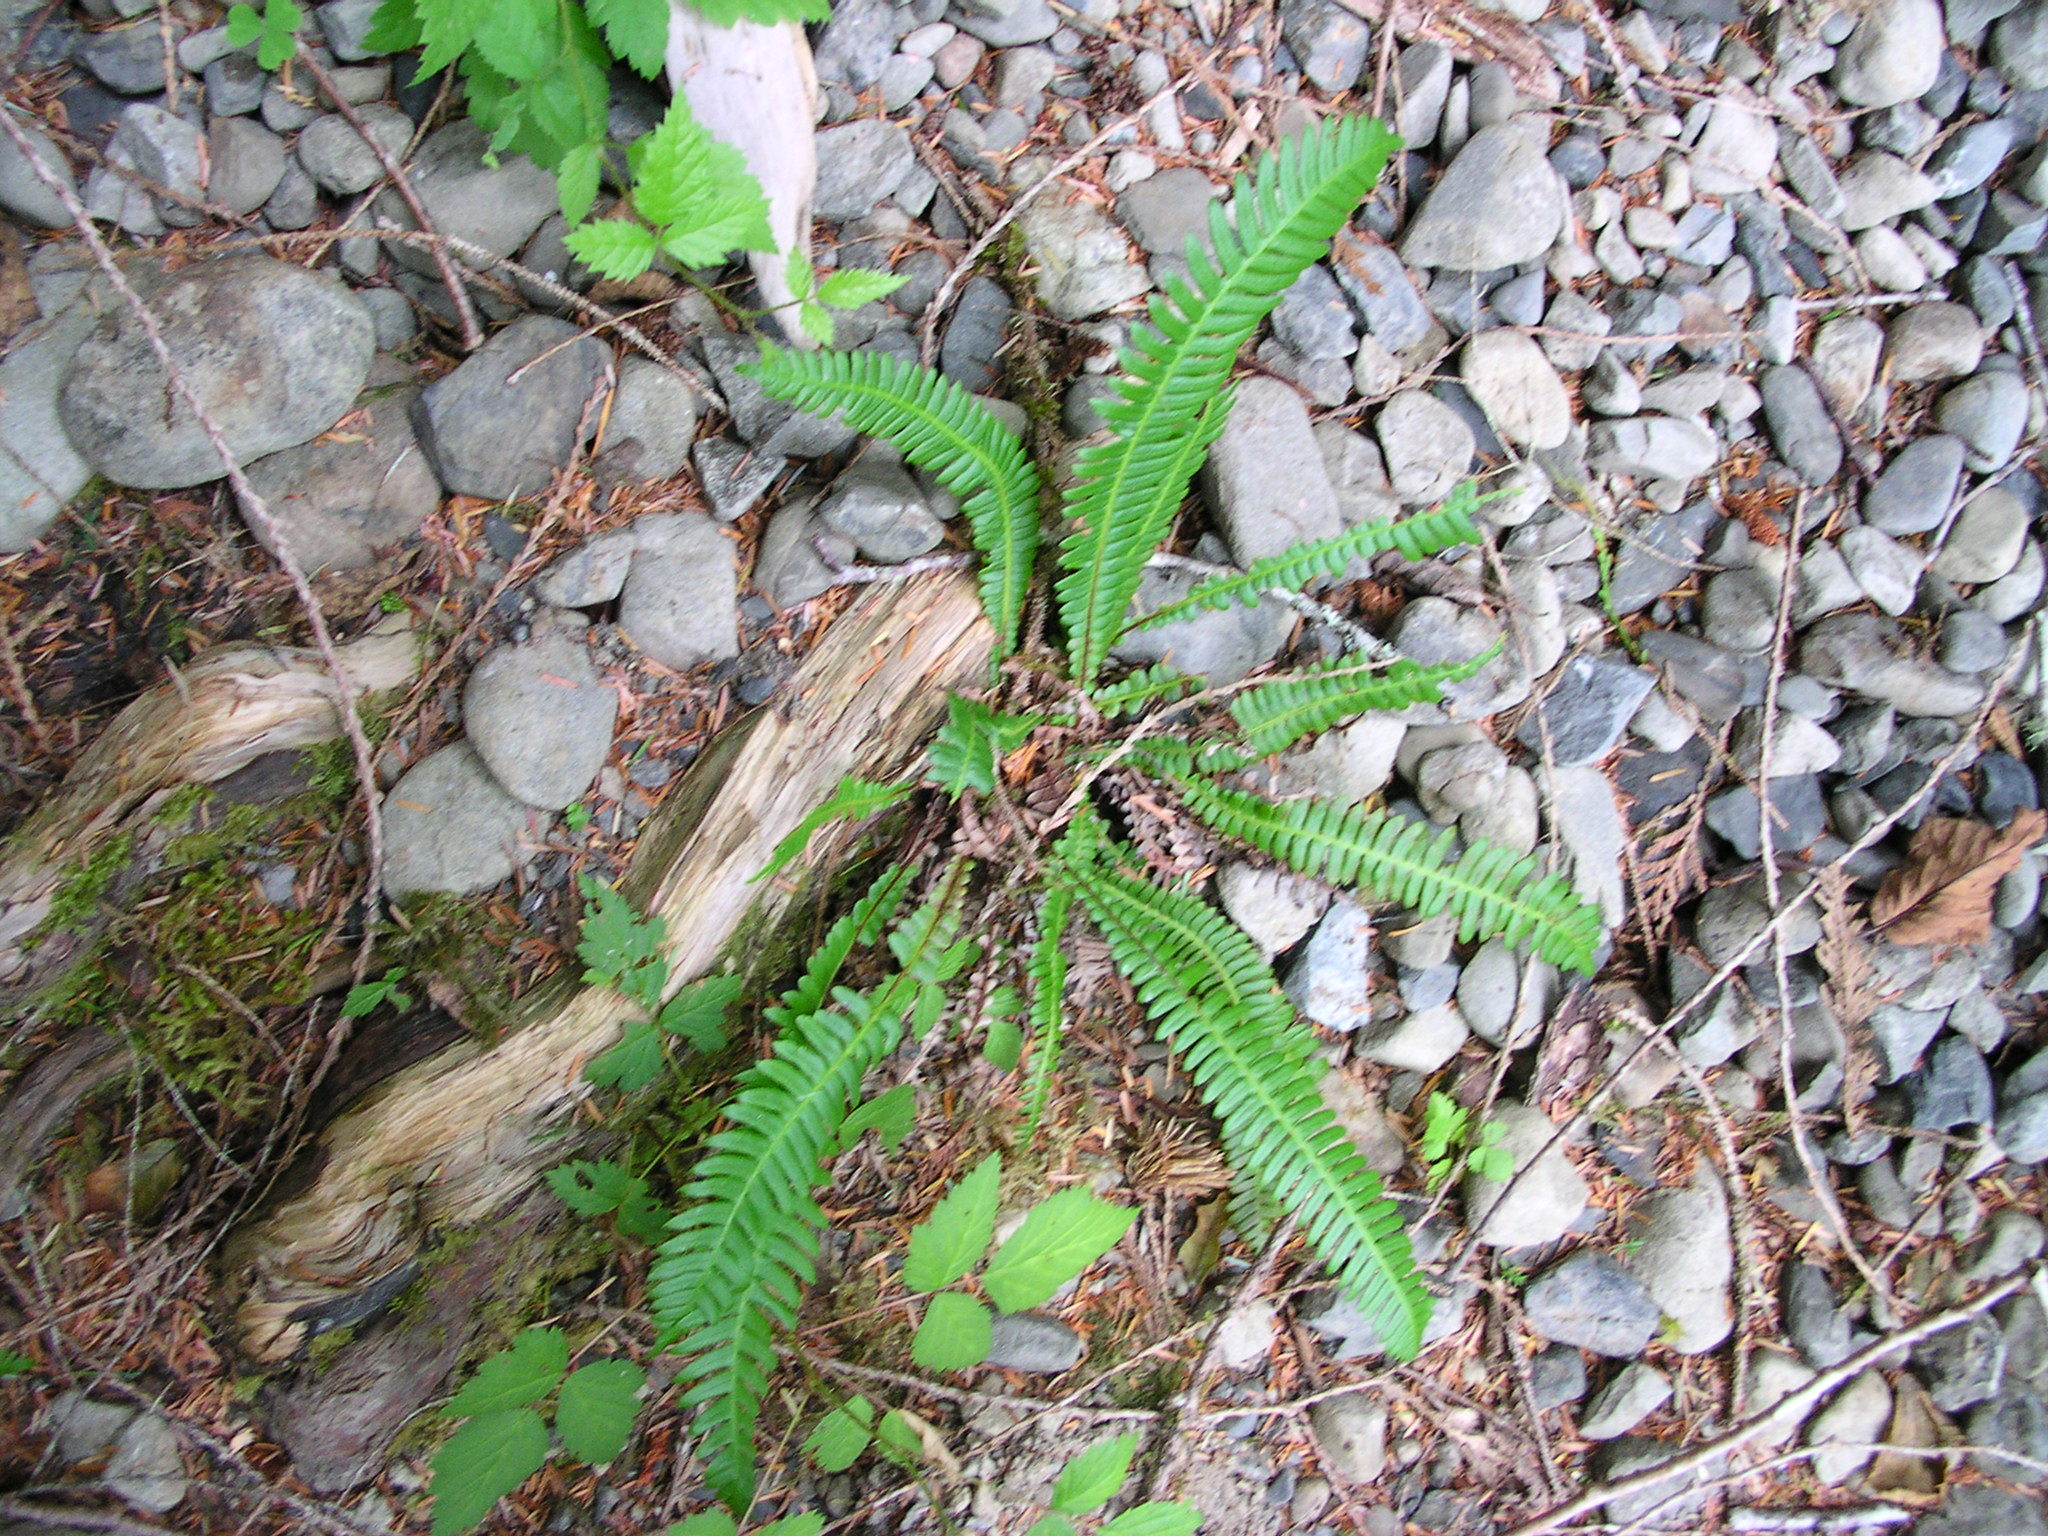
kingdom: Plantae
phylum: Tracheophyta
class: Polypodiopsida
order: Polypodiales
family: Blechnaceae
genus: Struthiopteris
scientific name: Struthiopteris spicant
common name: Deer fern
